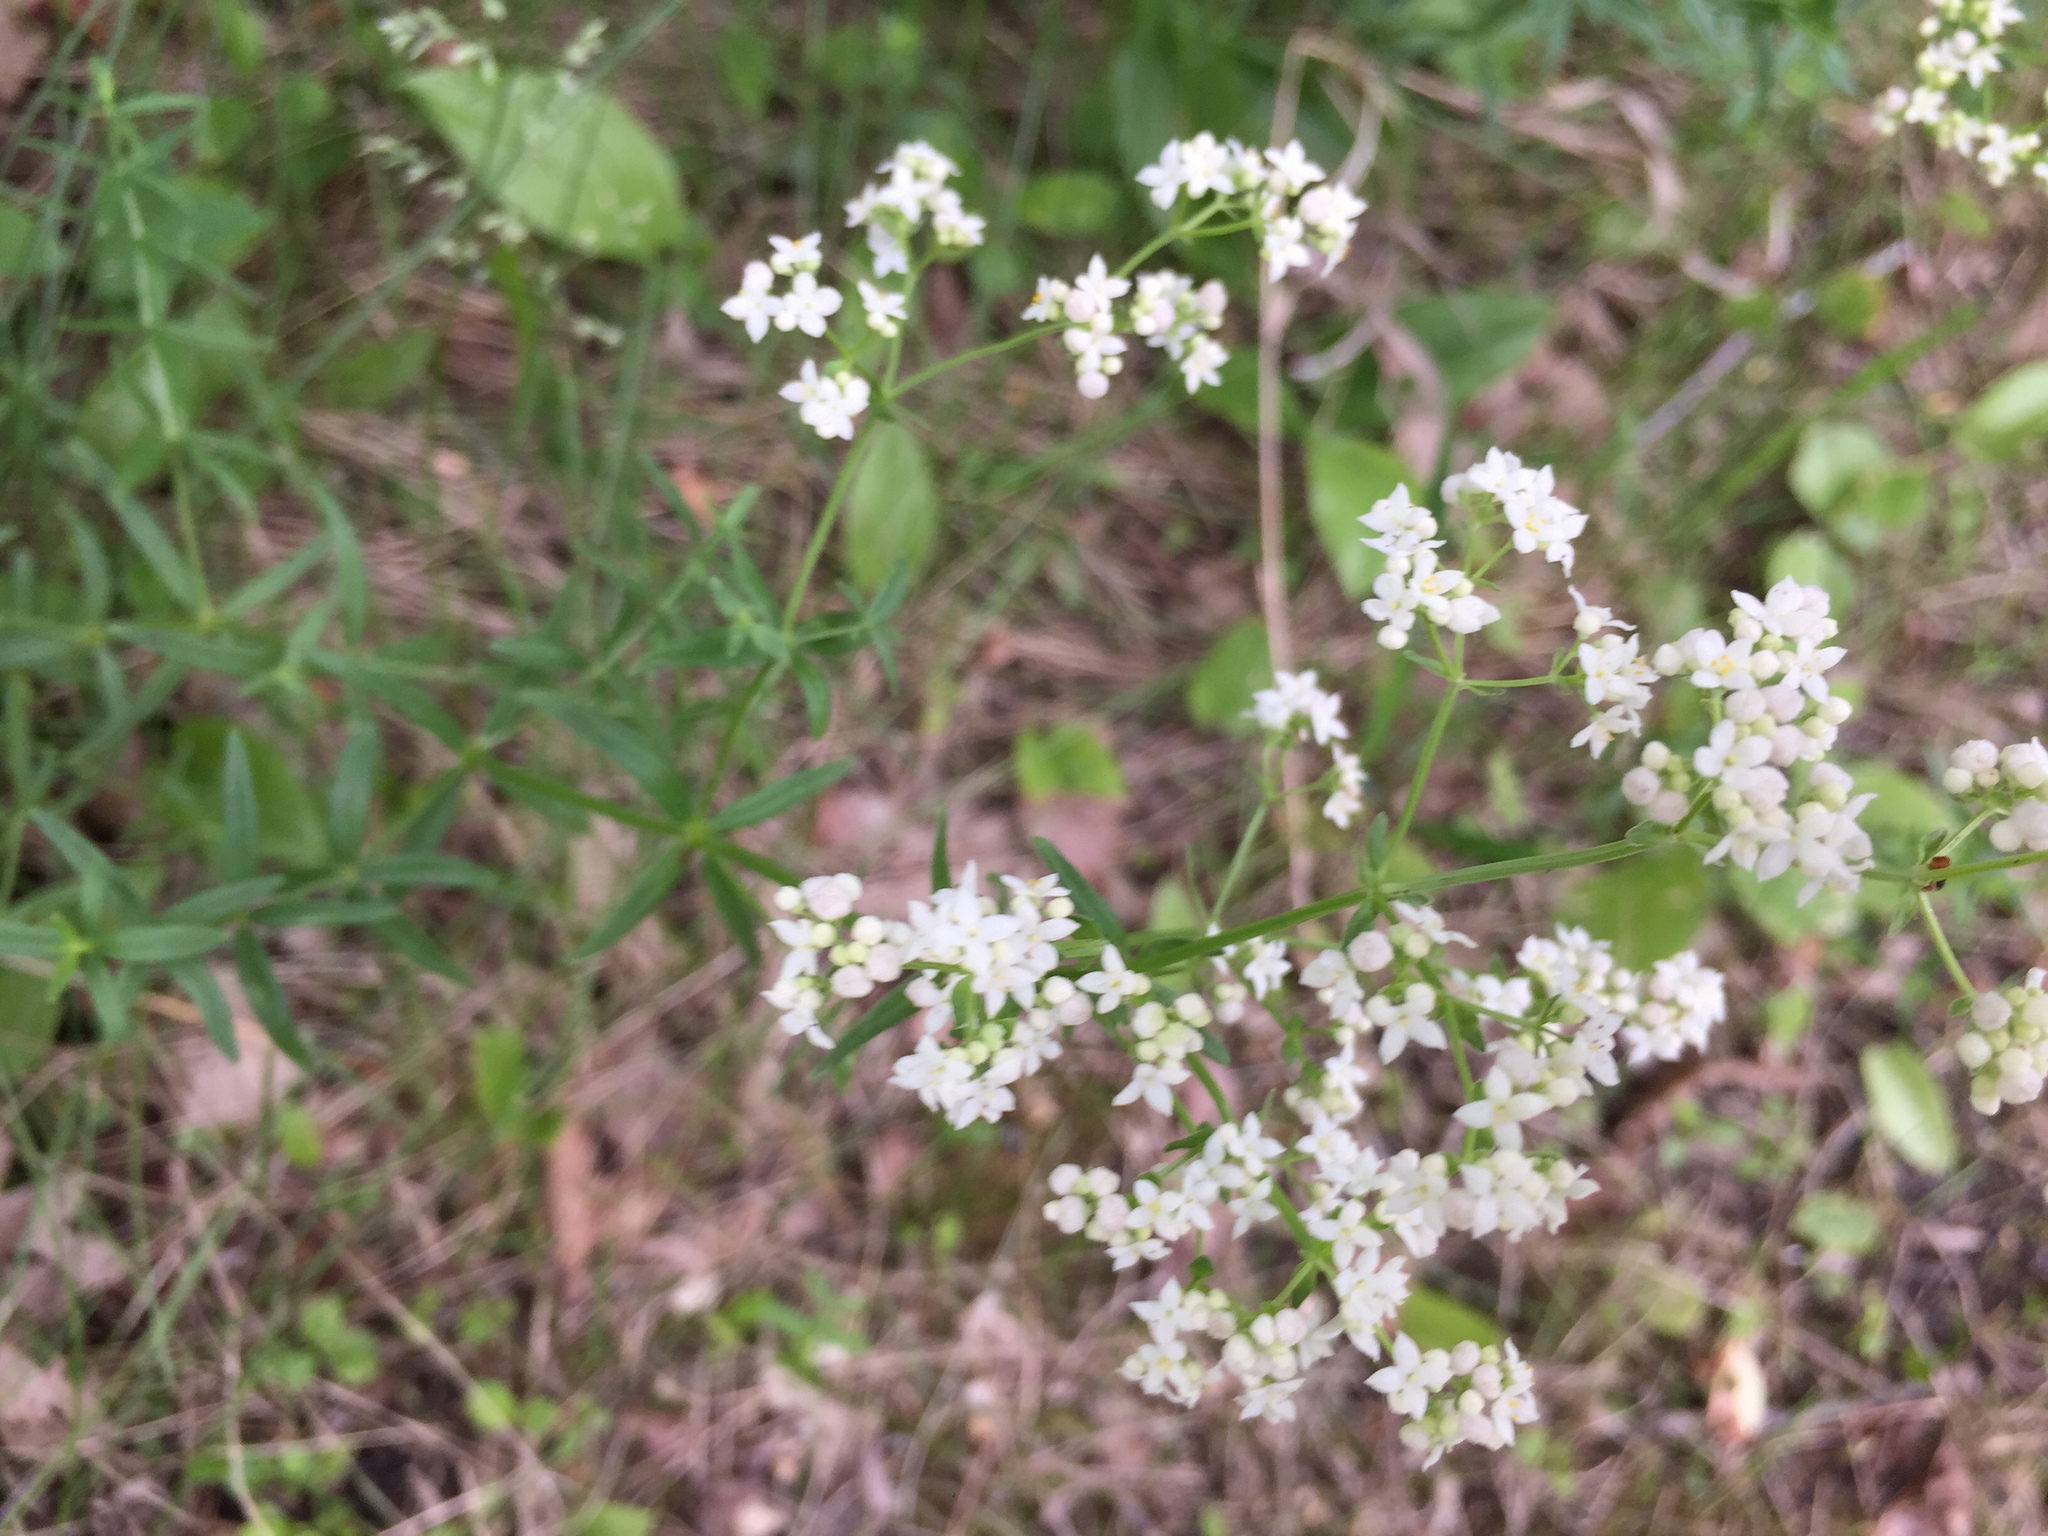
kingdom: Plantae
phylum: Tracheophyta
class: Magnoliopsida
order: Gentianales
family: Rubiaceae
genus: Galium
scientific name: Galium boreale
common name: Northern bedstraw
